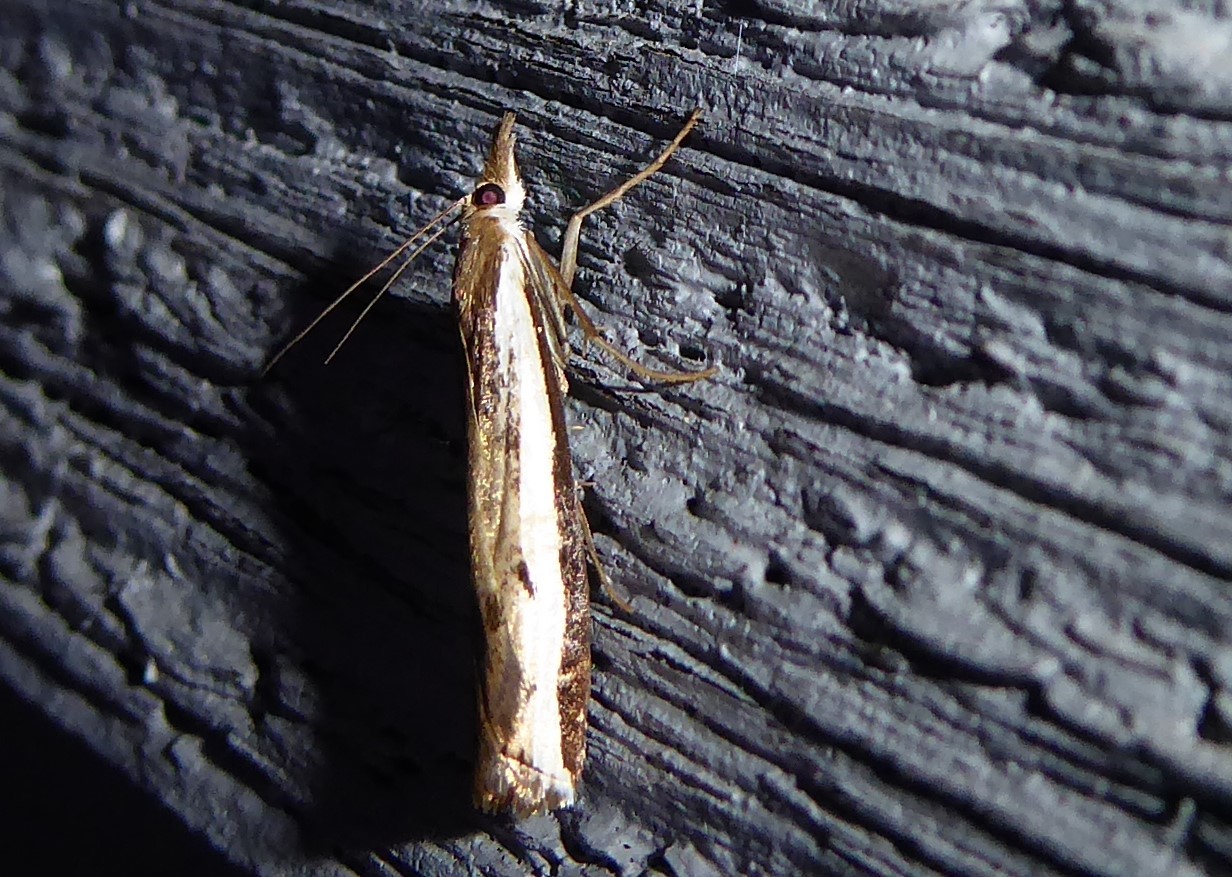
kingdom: Animalia
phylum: Arthropoda
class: Insecta
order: Lepidoptera
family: Crambidae
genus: Orocrambus
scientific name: Orocrambus flexuosellus
